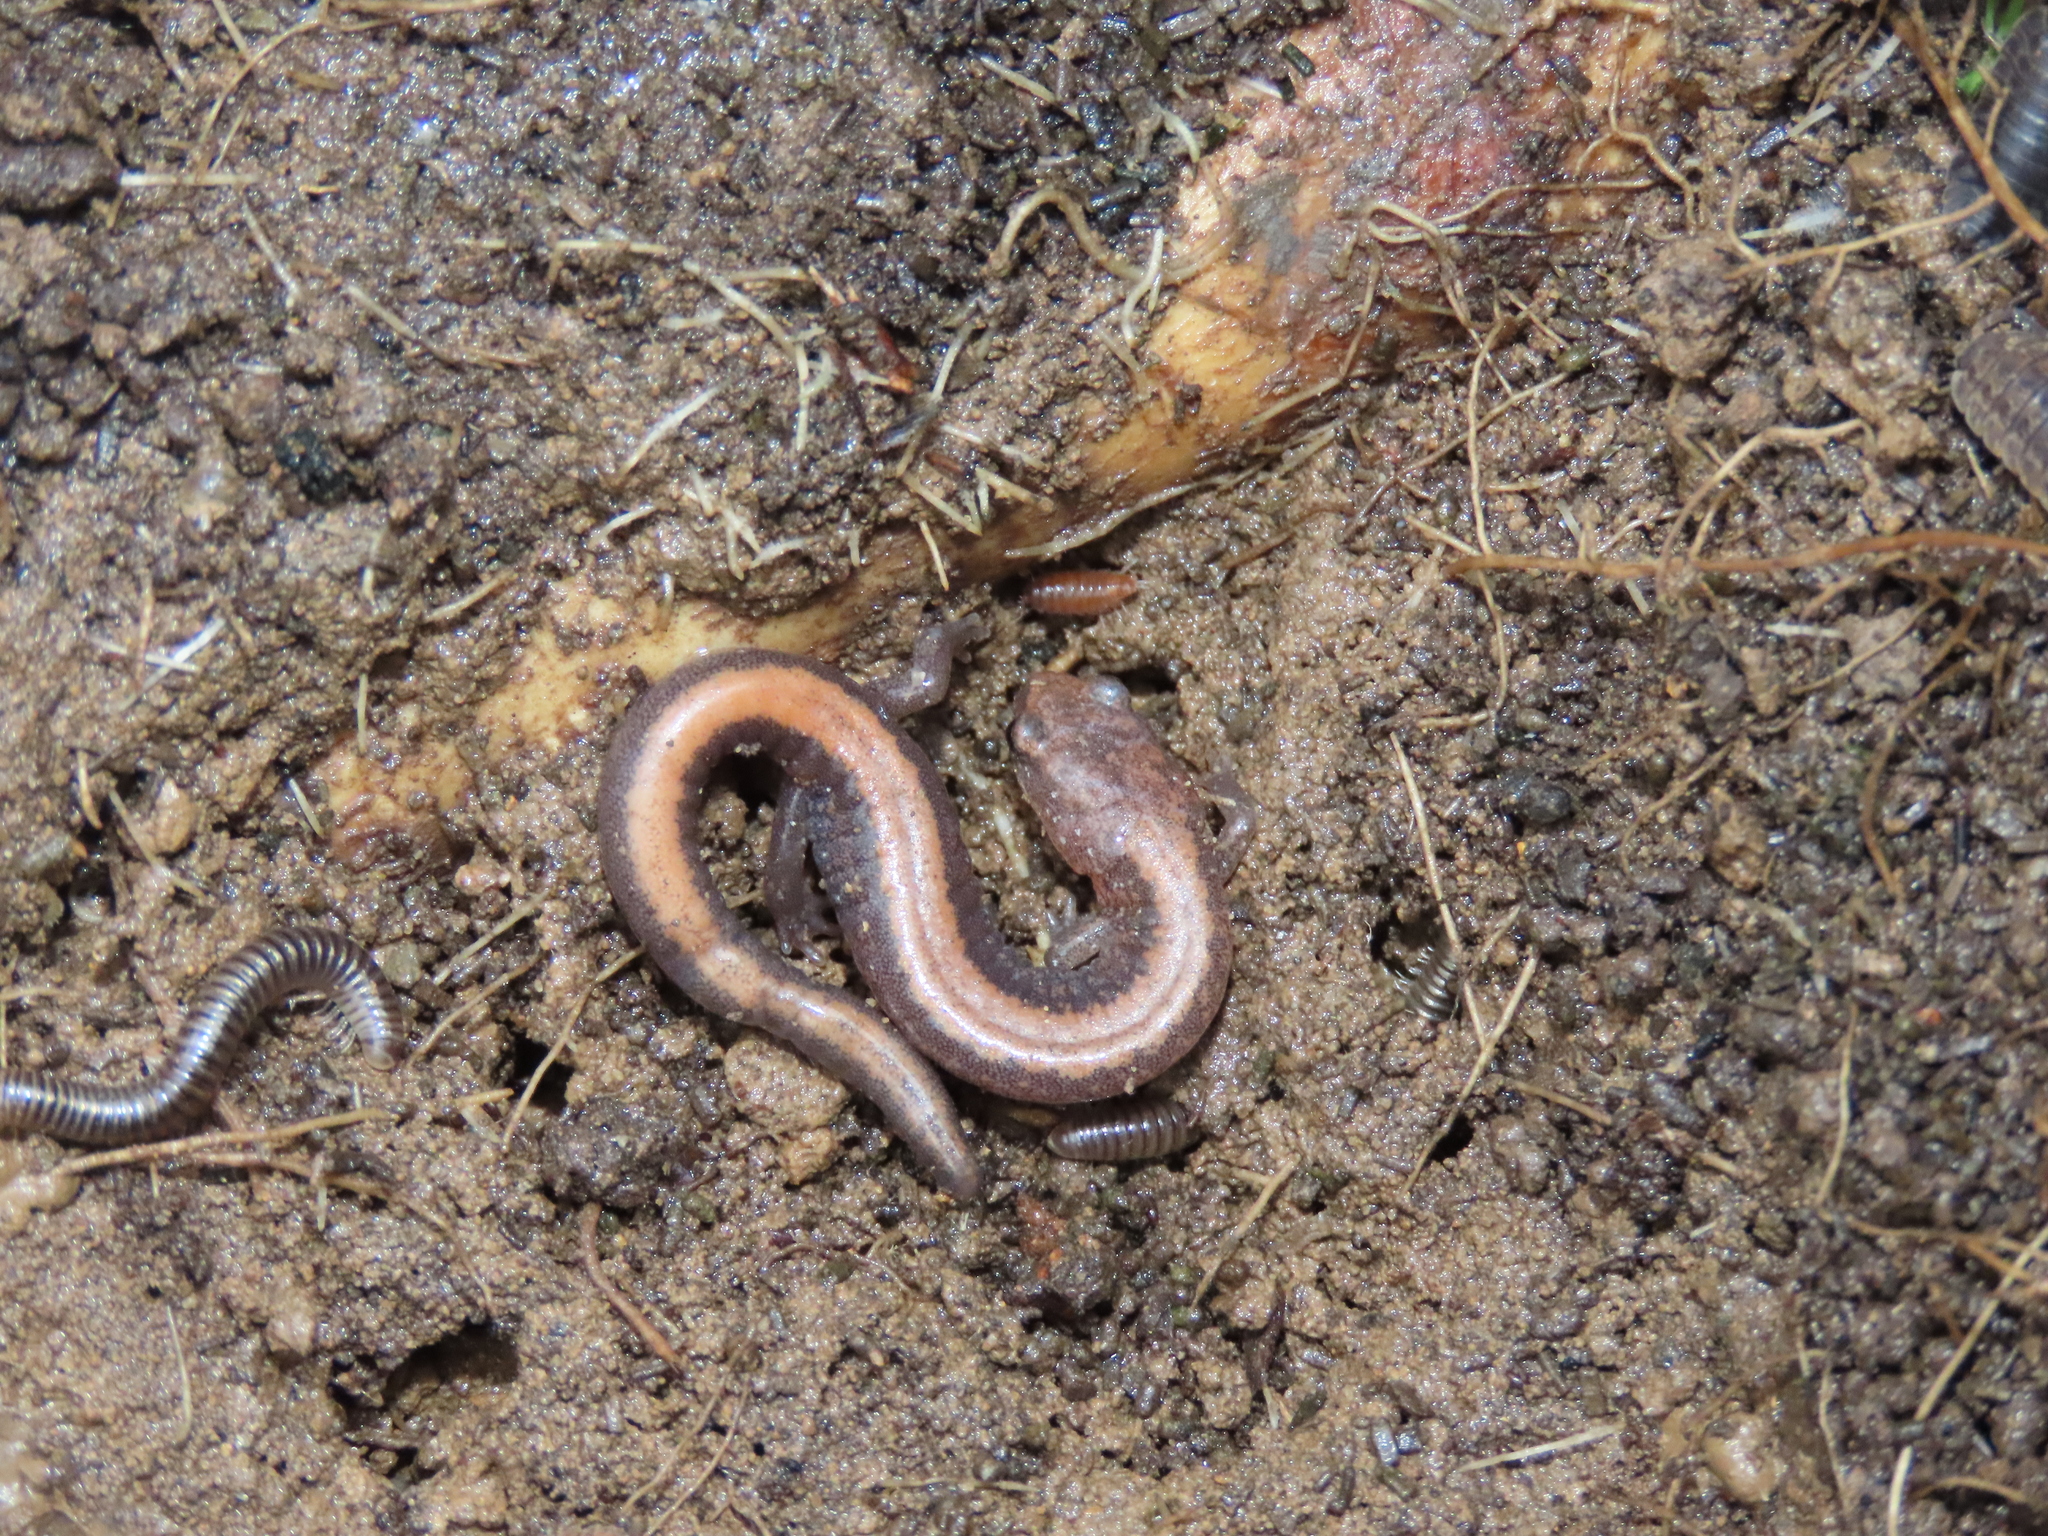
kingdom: Animalia
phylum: Chordata
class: Amphibia
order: Caudata
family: Plethodontidae
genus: Plethodon
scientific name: Plethodon cinereus
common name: Redback salamander
